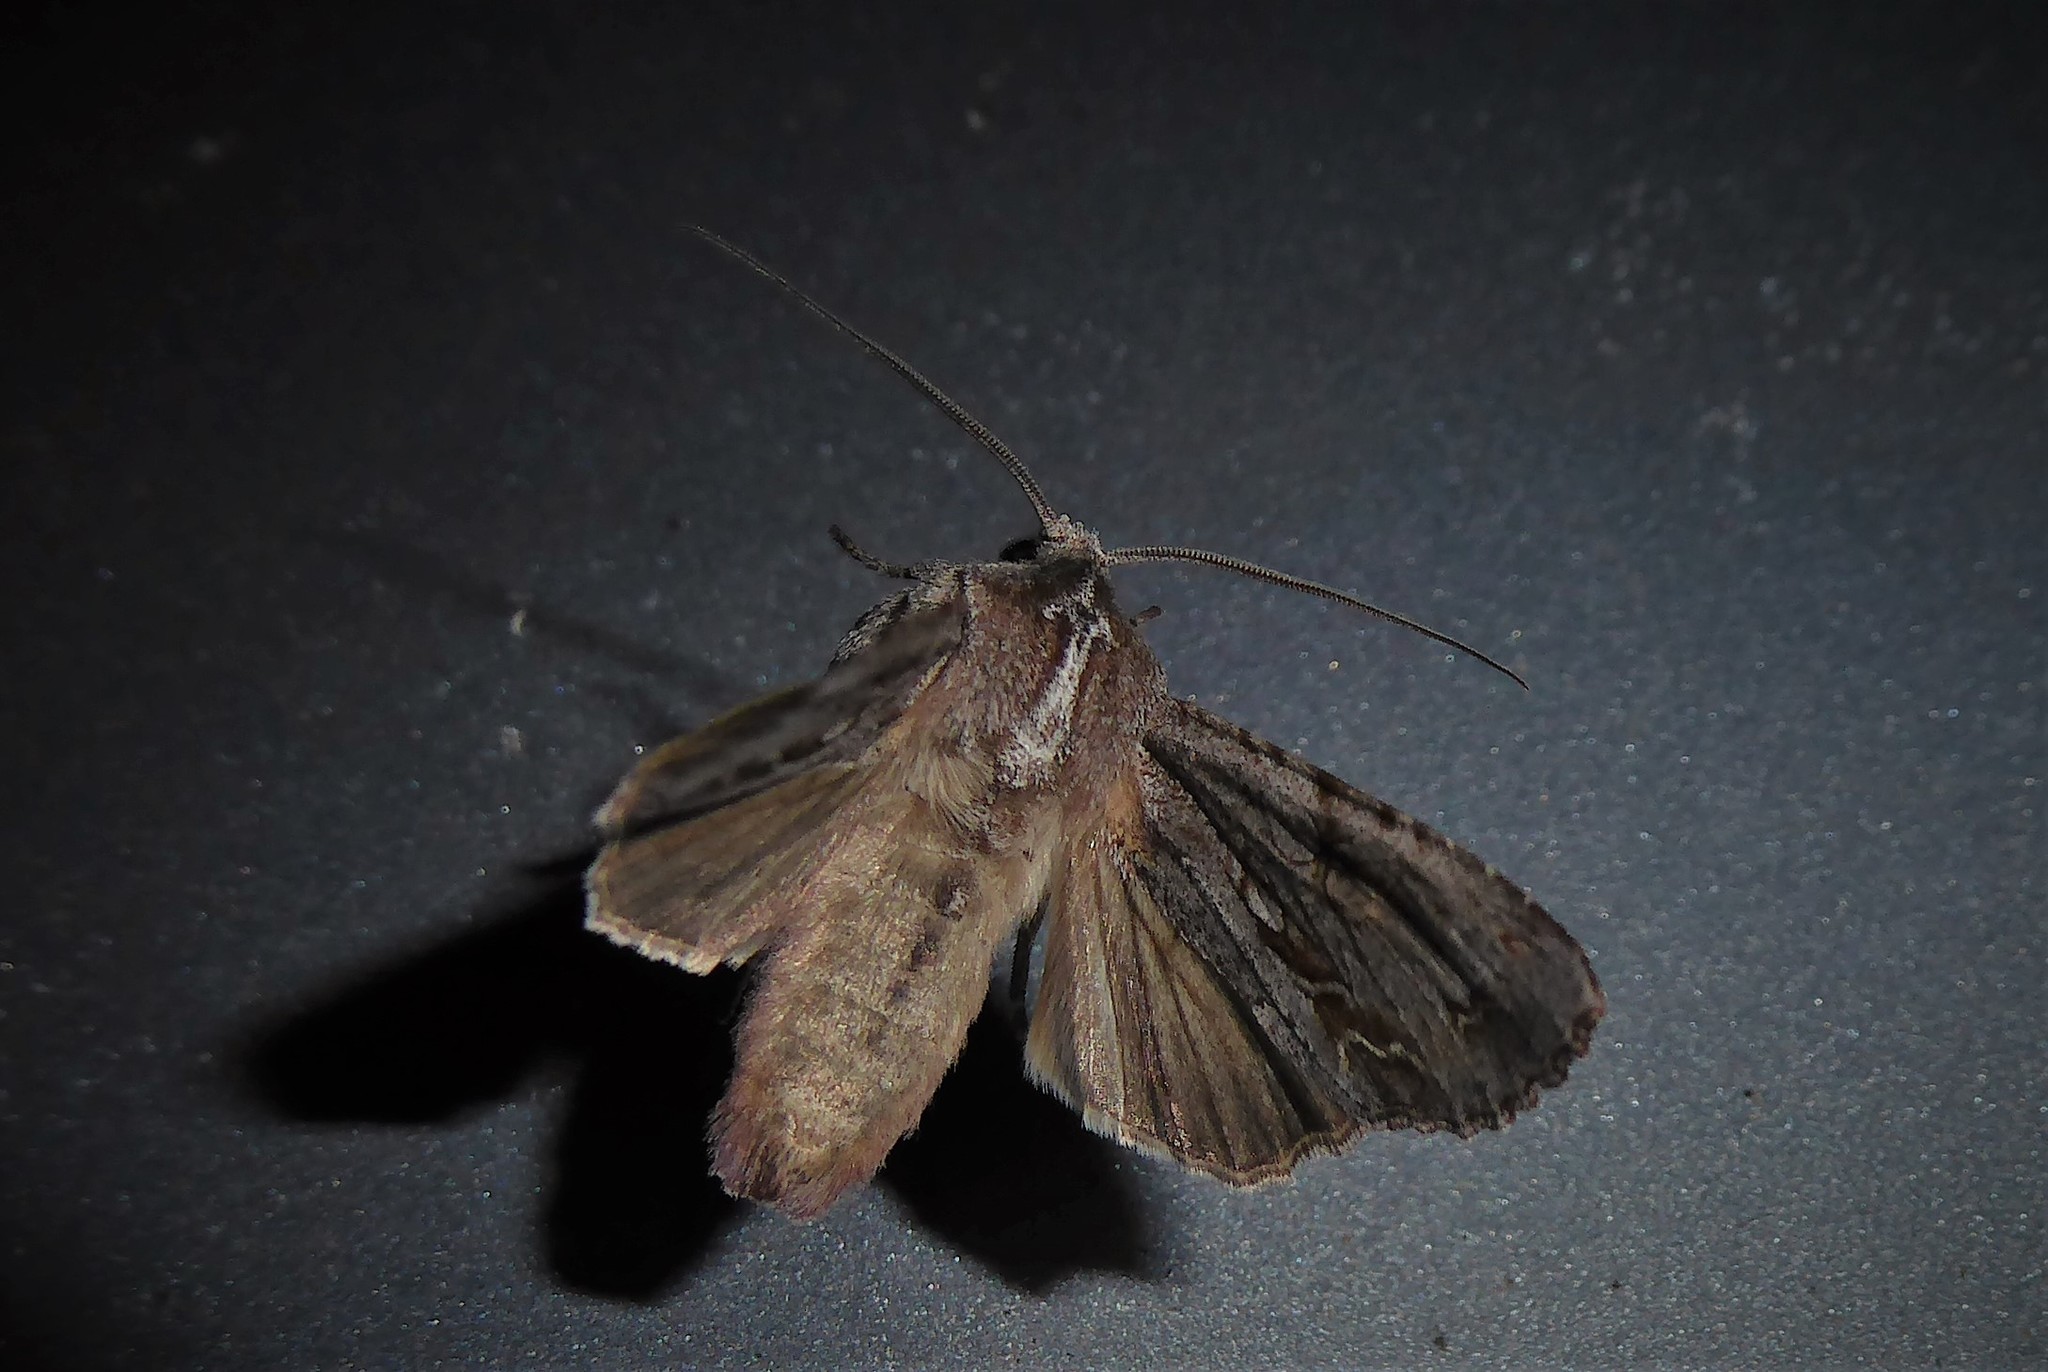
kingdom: Animalia
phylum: Arthropoda
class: Insecta
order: Lepidoptera
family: Noctuidae
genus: Ichneutica
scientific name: Ichneutica
